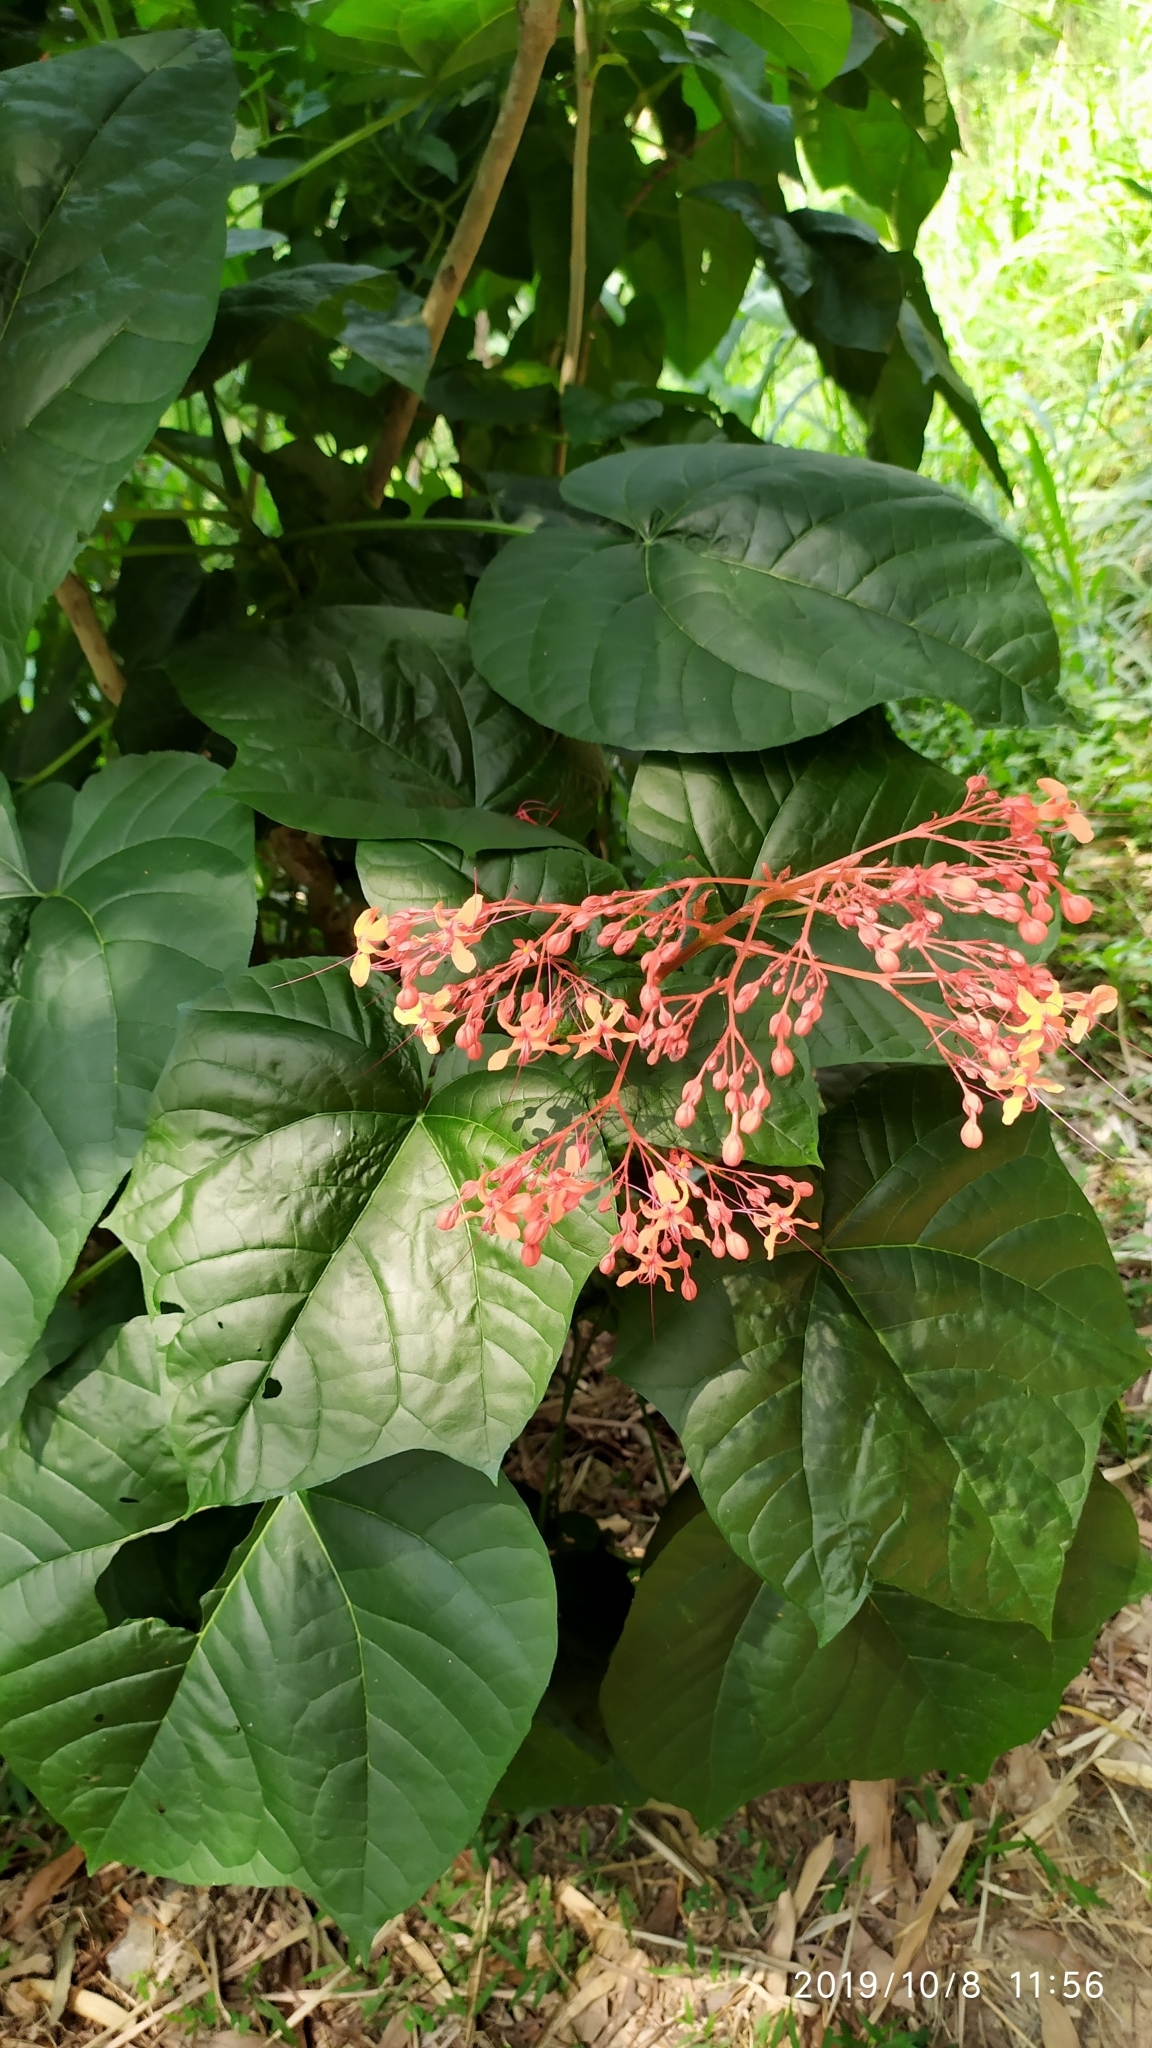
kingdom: Plantae
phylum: Tracheophyta
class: Magnoliopsida
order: Lamiales
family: Lamiaceae
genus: Clerodendrum
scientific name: Clerodendrum japonicum
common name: Japanese glorybower
